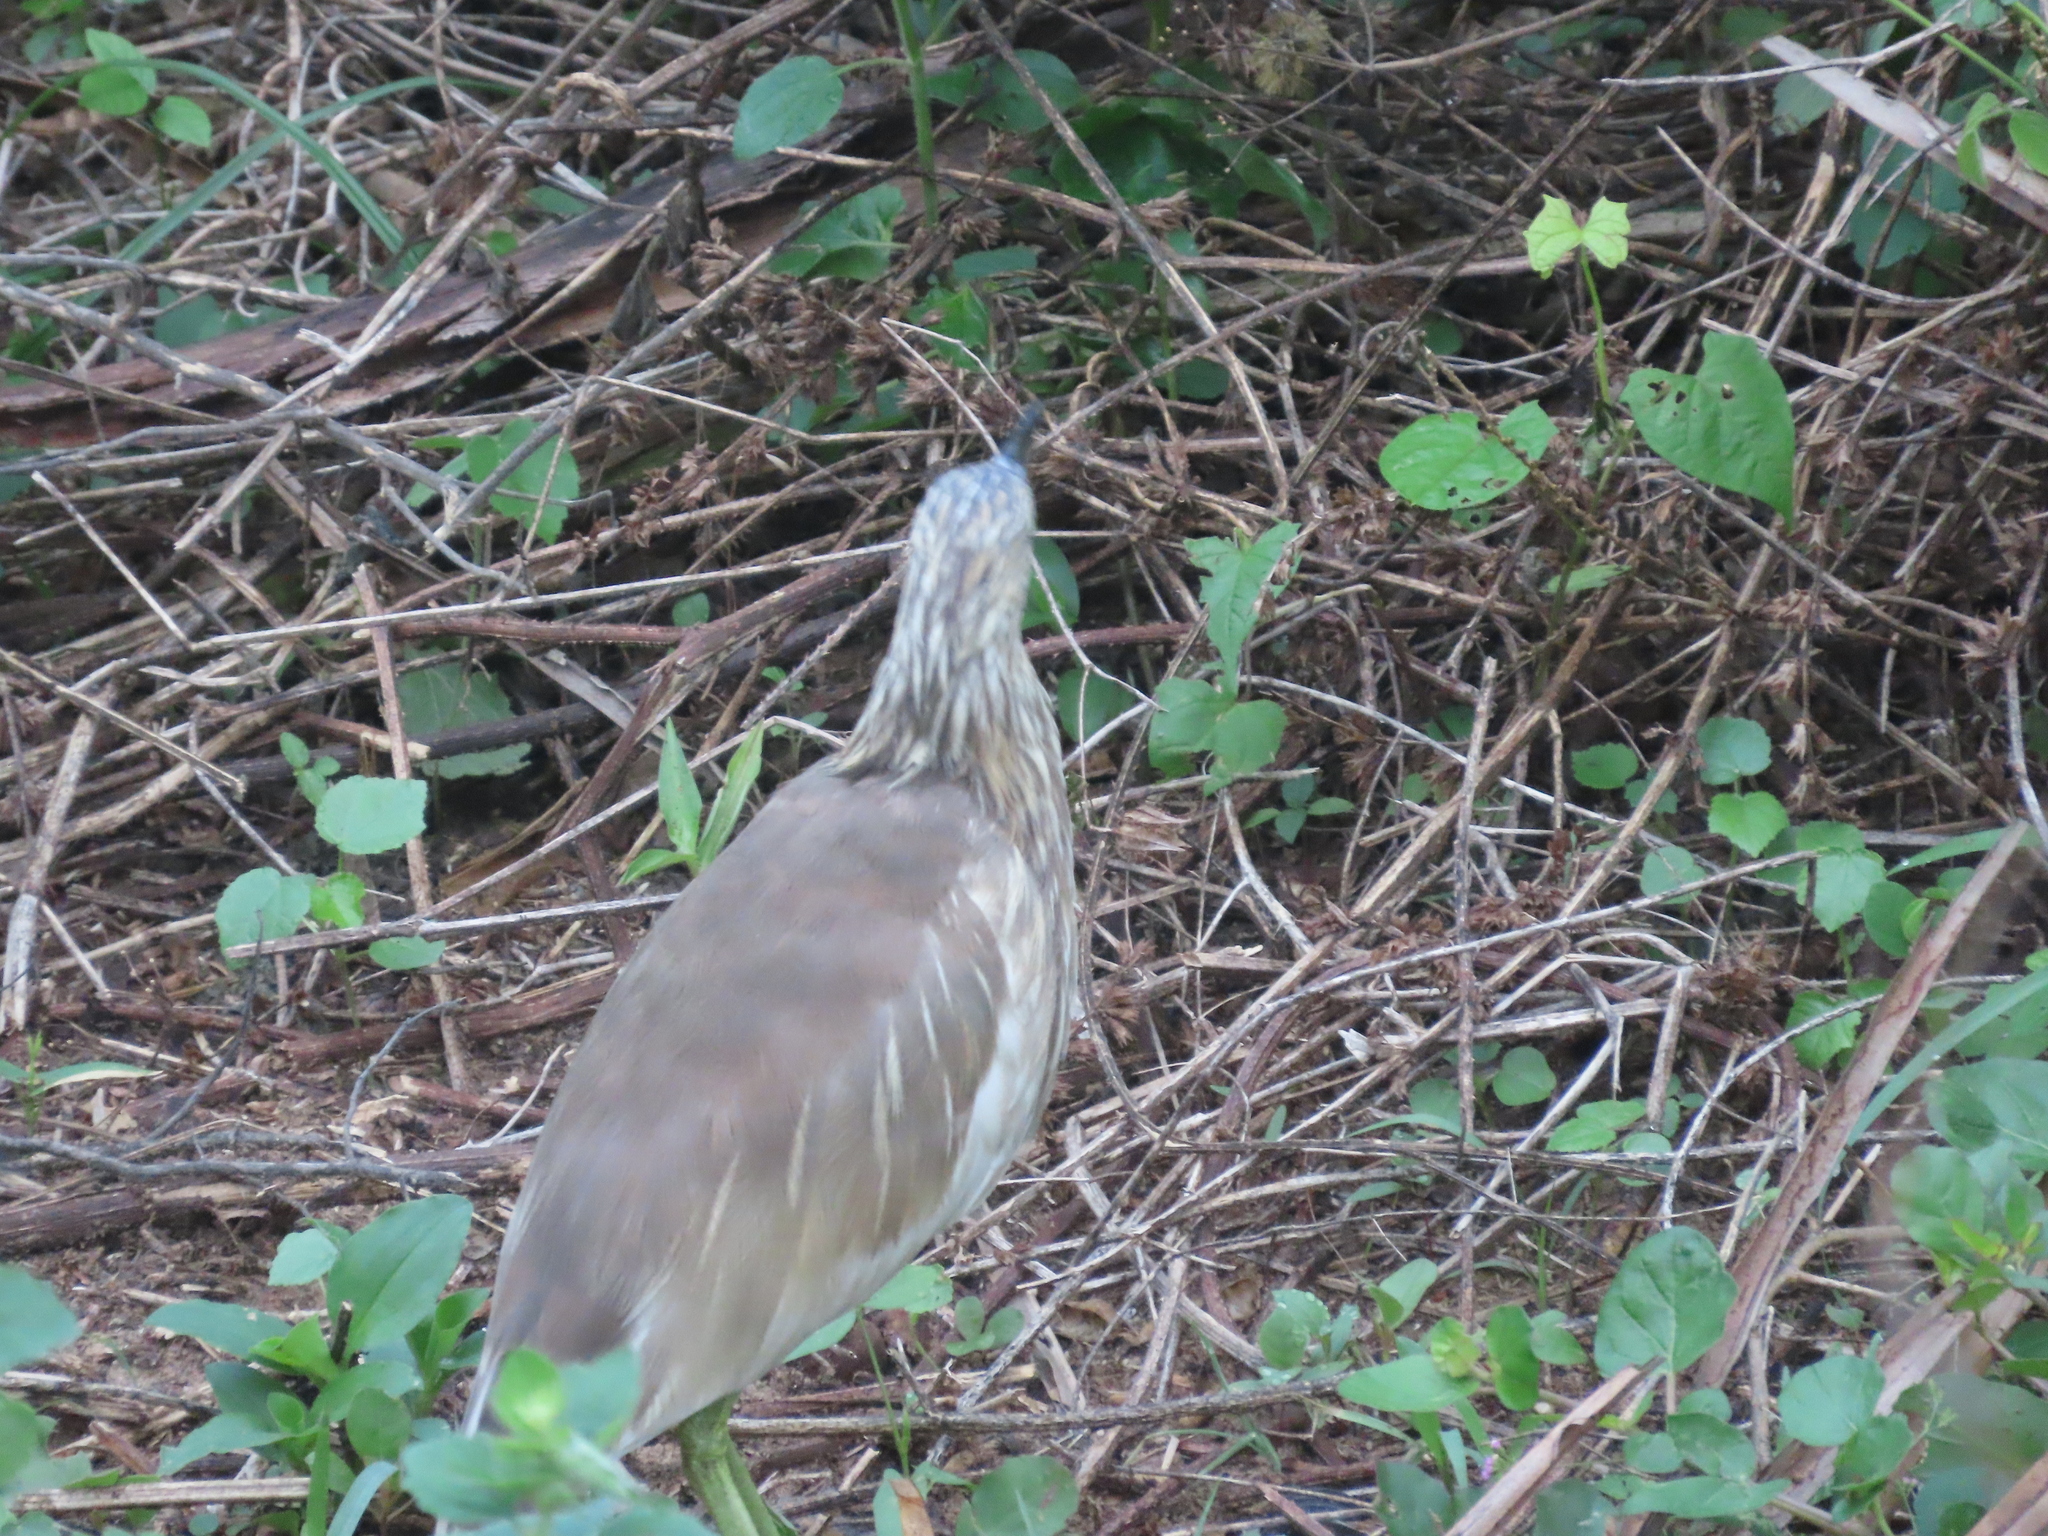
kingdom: Animalia
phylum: Chordata
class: Aves
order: Passeriformes
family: Corvidae
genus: Corvus
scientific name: Corvus splendens
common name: House crow
